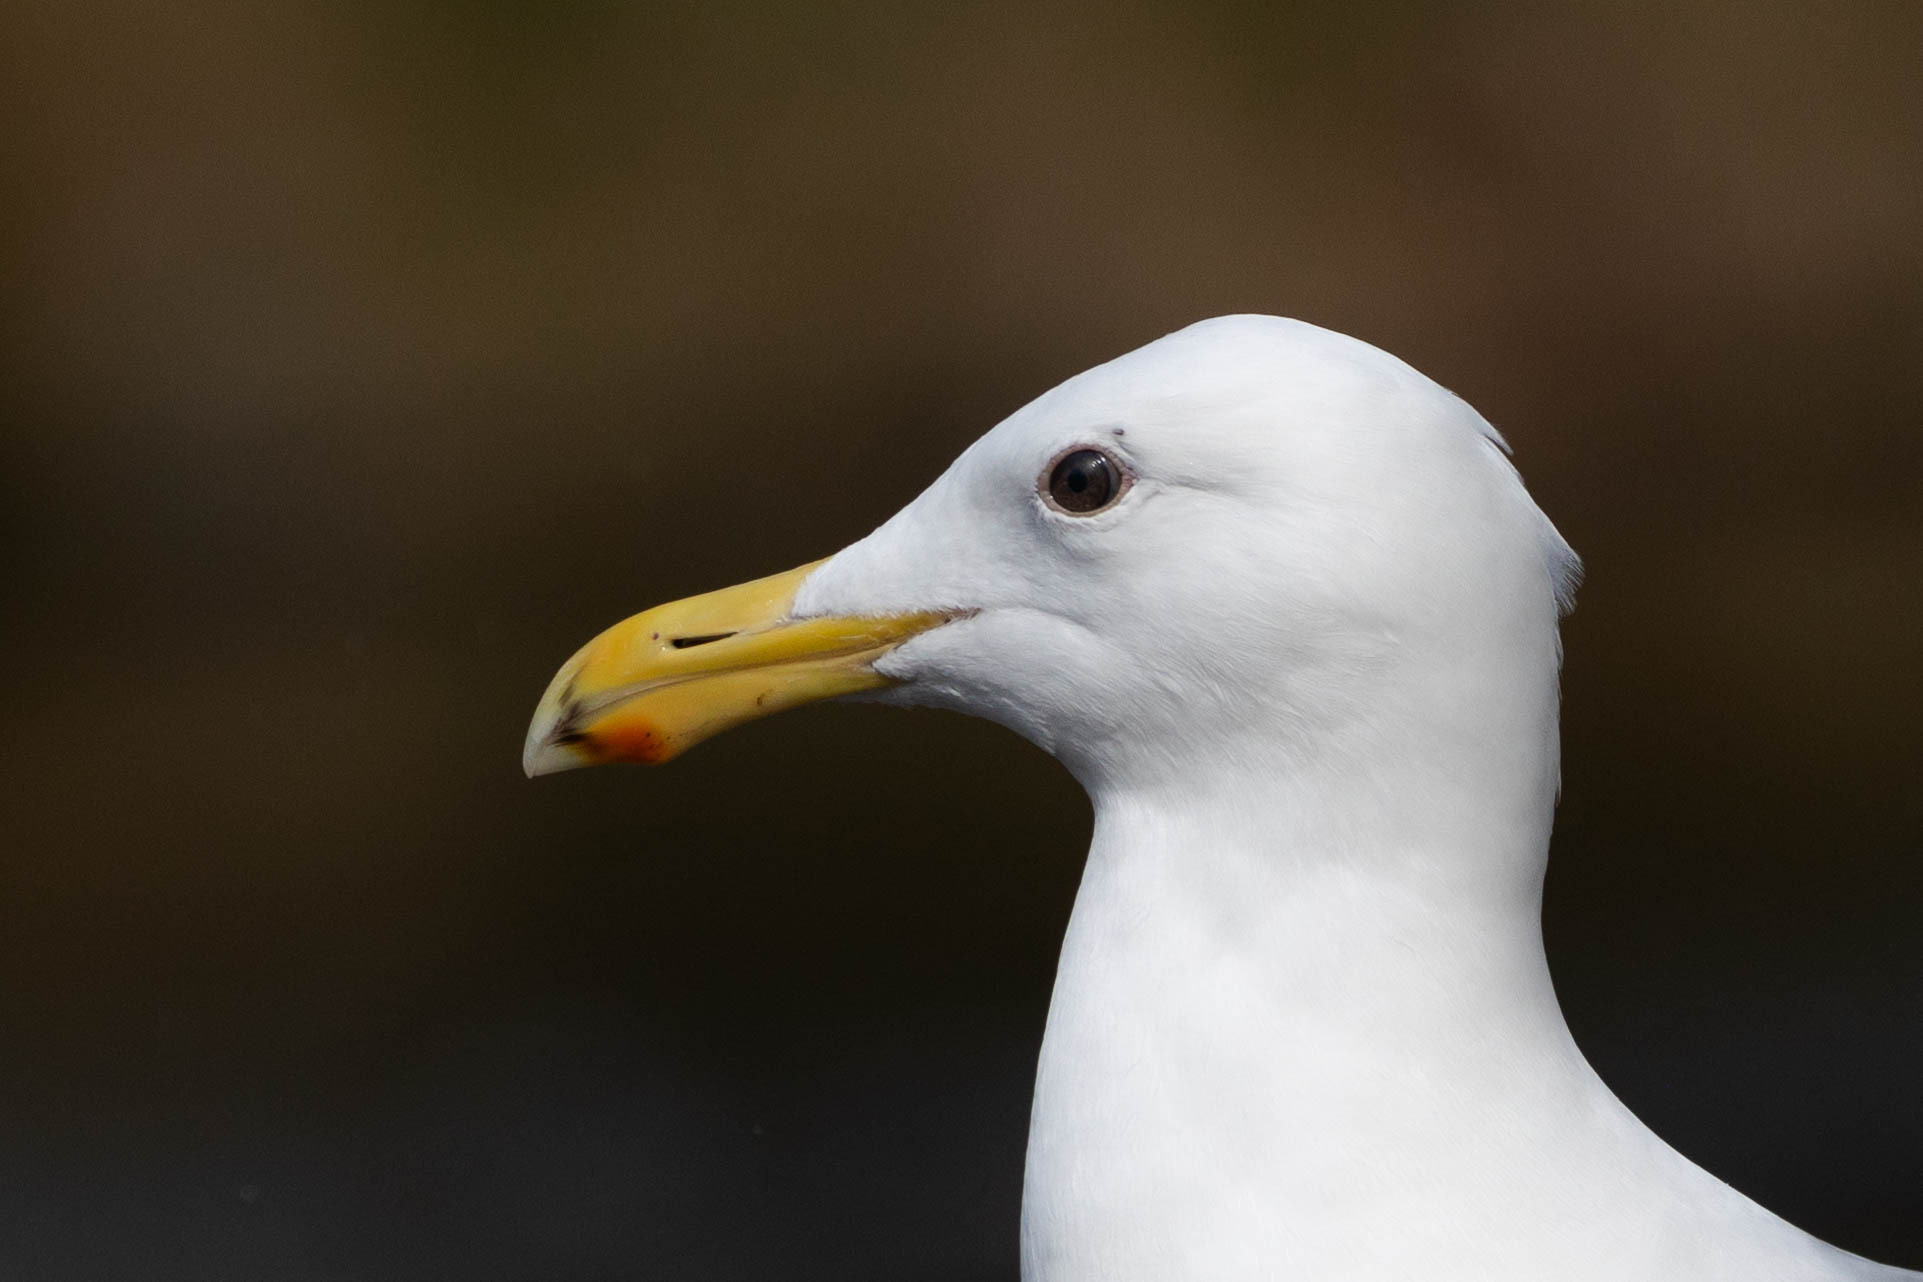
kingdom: Animalia
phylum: Chordata
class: Aves
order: Charadriiformes
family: Laridae
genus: Larus
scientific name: Larus
